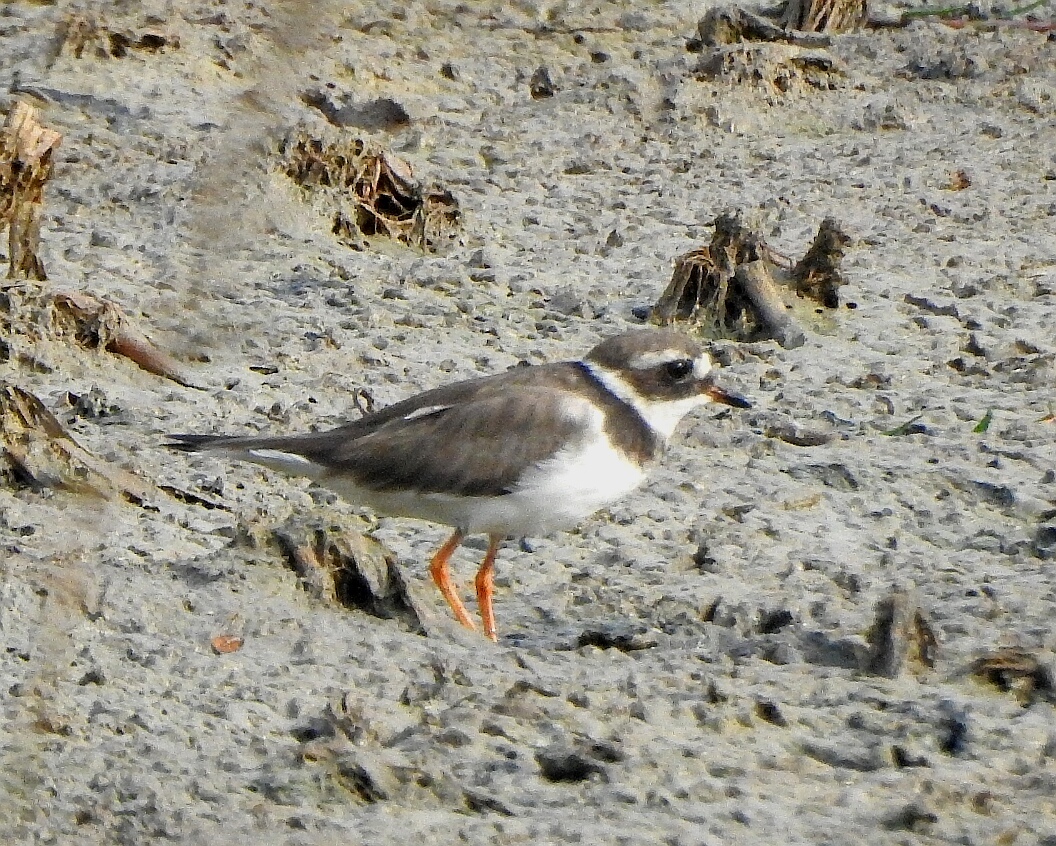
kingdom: Animalia
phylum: Chordata
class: Aves
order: Charadriiformes
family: Charadriidae
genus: Charadrius
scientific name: Charadrius hiaticula
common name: Common ringed plover
